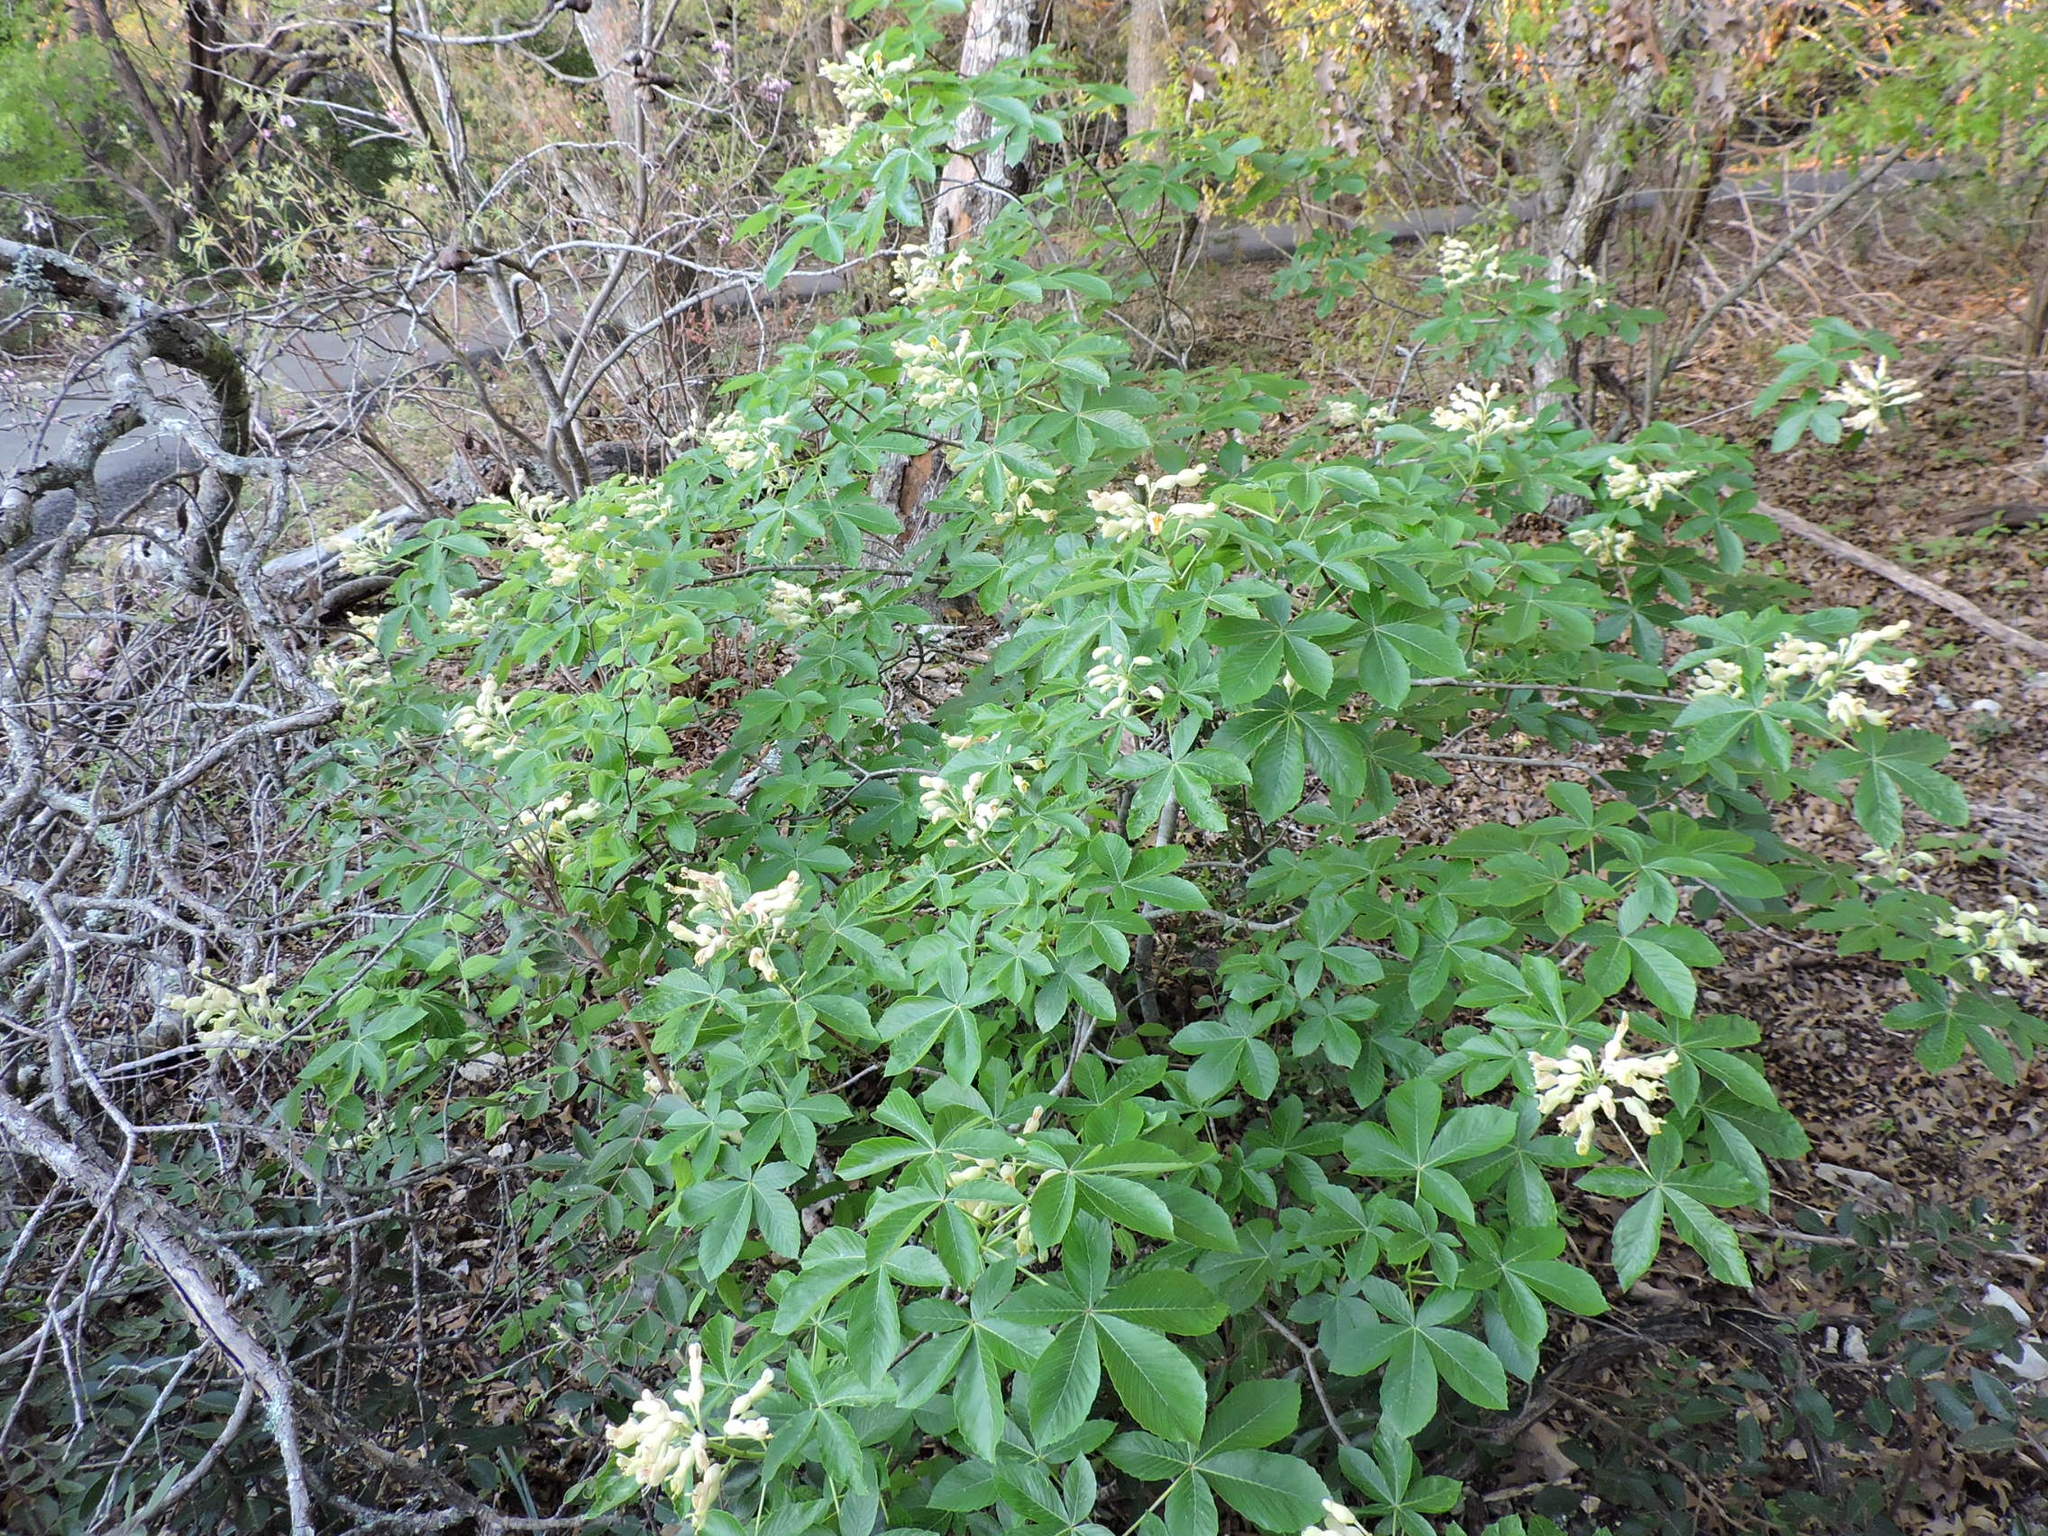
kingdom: Plantae
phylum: Tracheophyta
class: Magnoliopsida
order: Sapindales
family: Sapindaceae
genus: Aesculus
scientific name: Aesculus pavia
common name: Red buckeye
